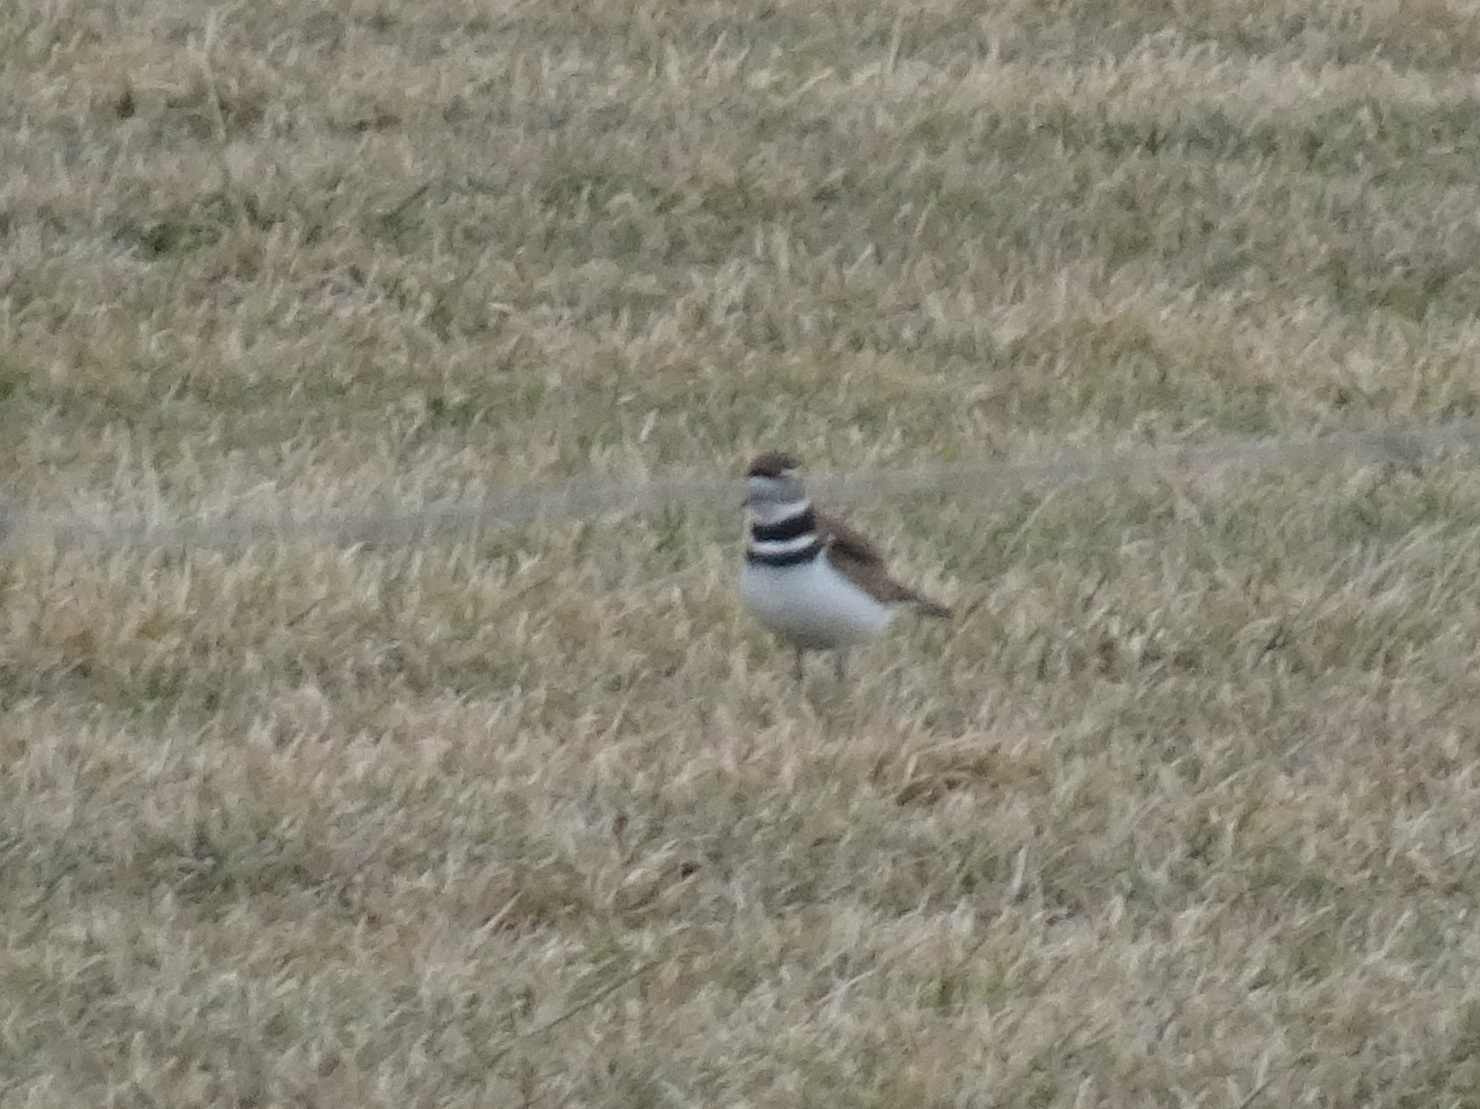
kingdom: Animalia
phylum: Chordata
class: Aves
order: Charadriiformes
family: Charadriidae
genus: Charadrius
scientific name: Charadrius vociferus
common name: Killdeer
